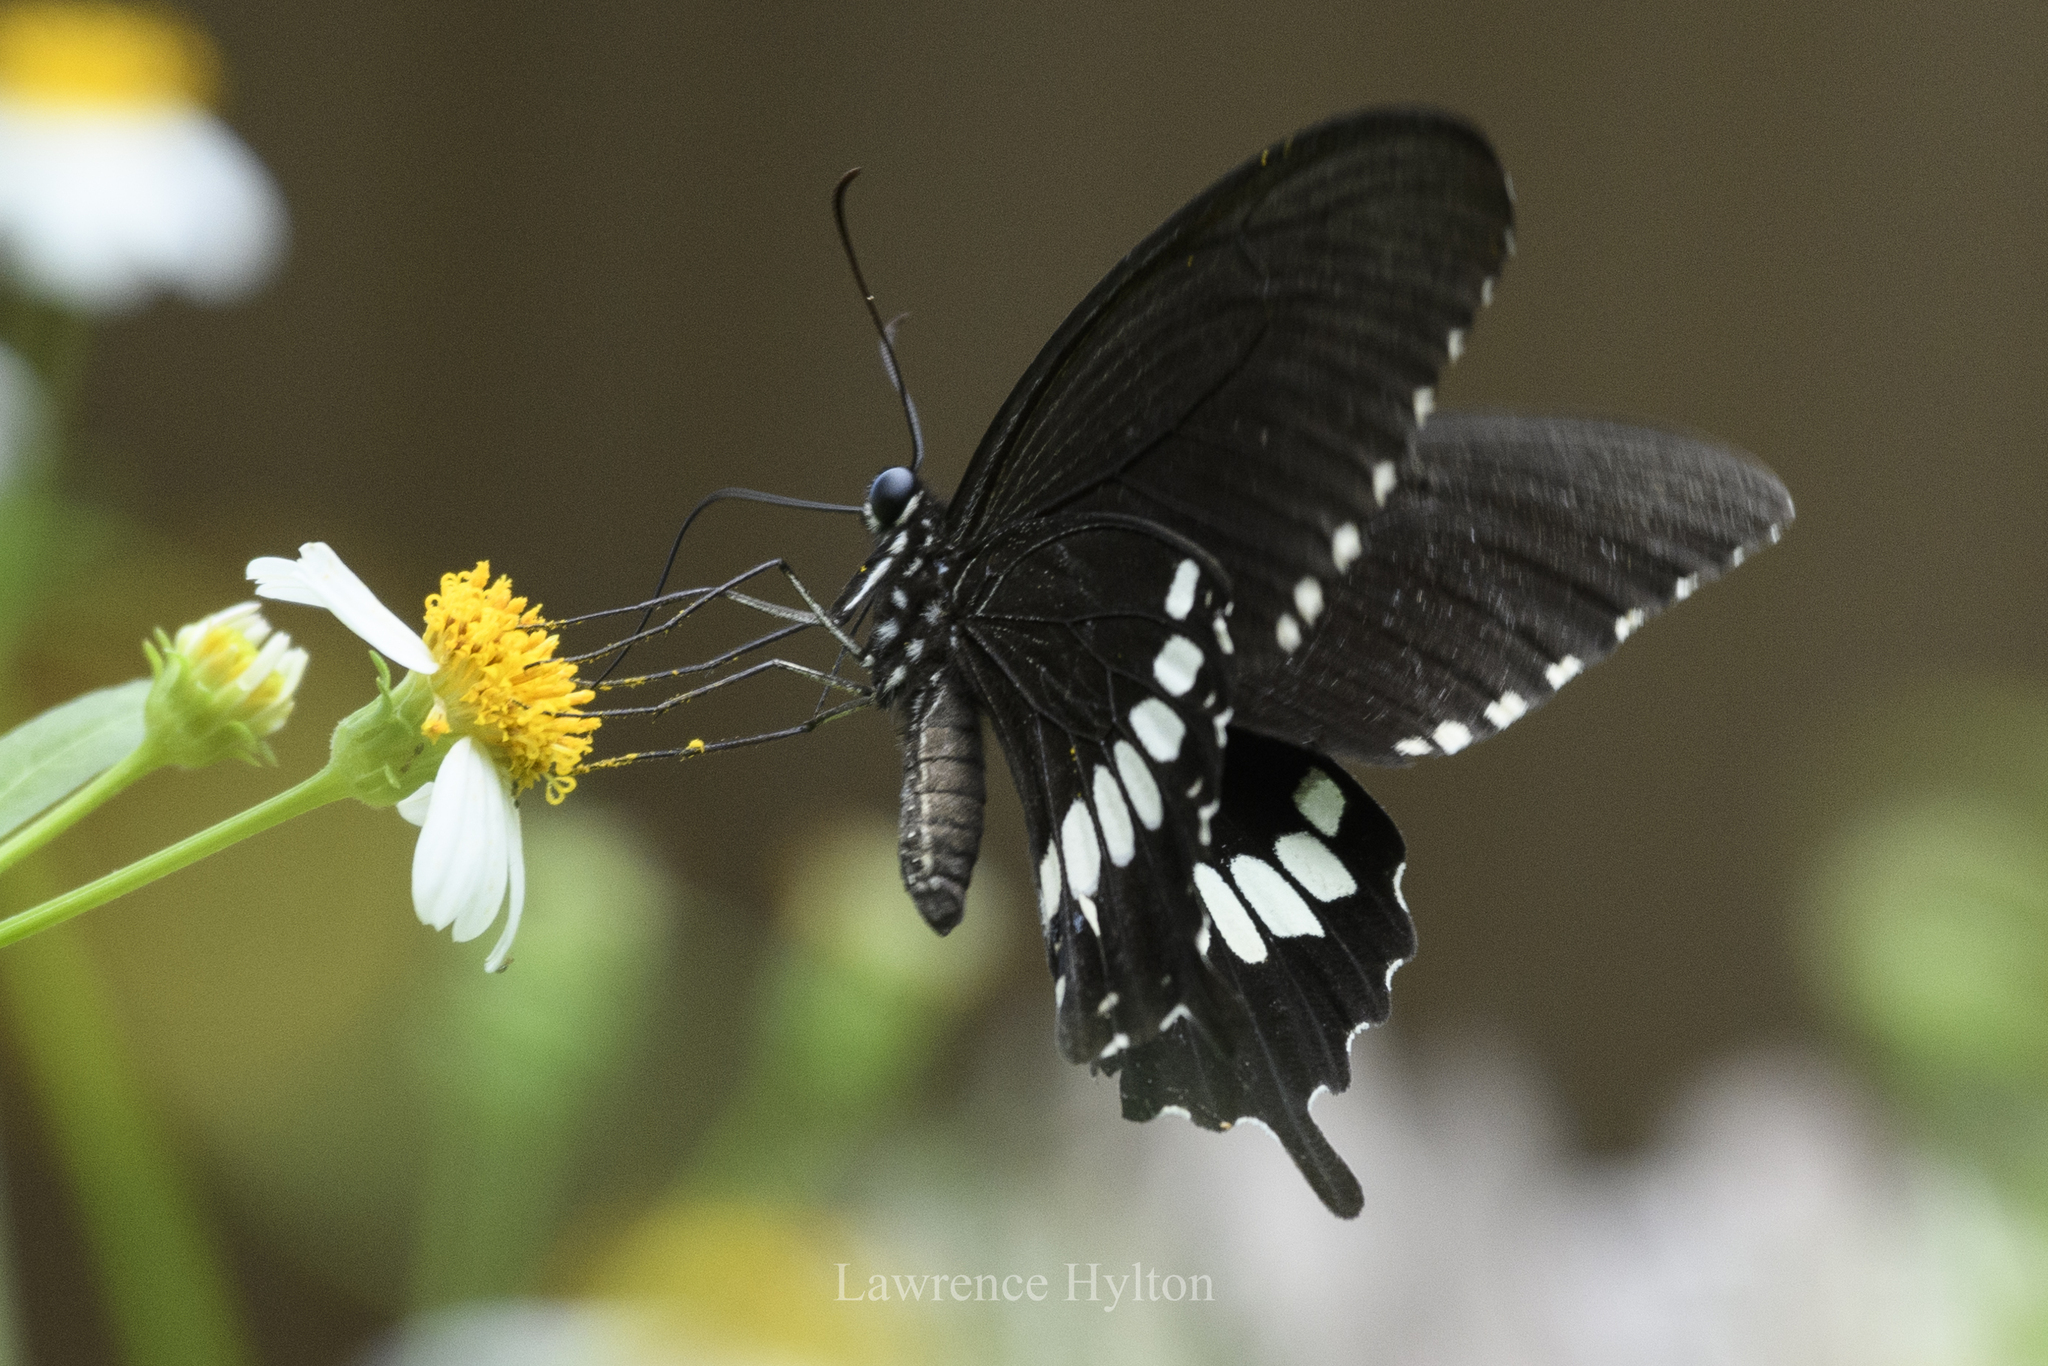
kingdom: Animalia
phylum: Arthropoda
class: Insecta
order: Lepidoptera
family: Papilionidae
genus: Papilio
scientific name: Papilio polytes
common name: Common mormon
